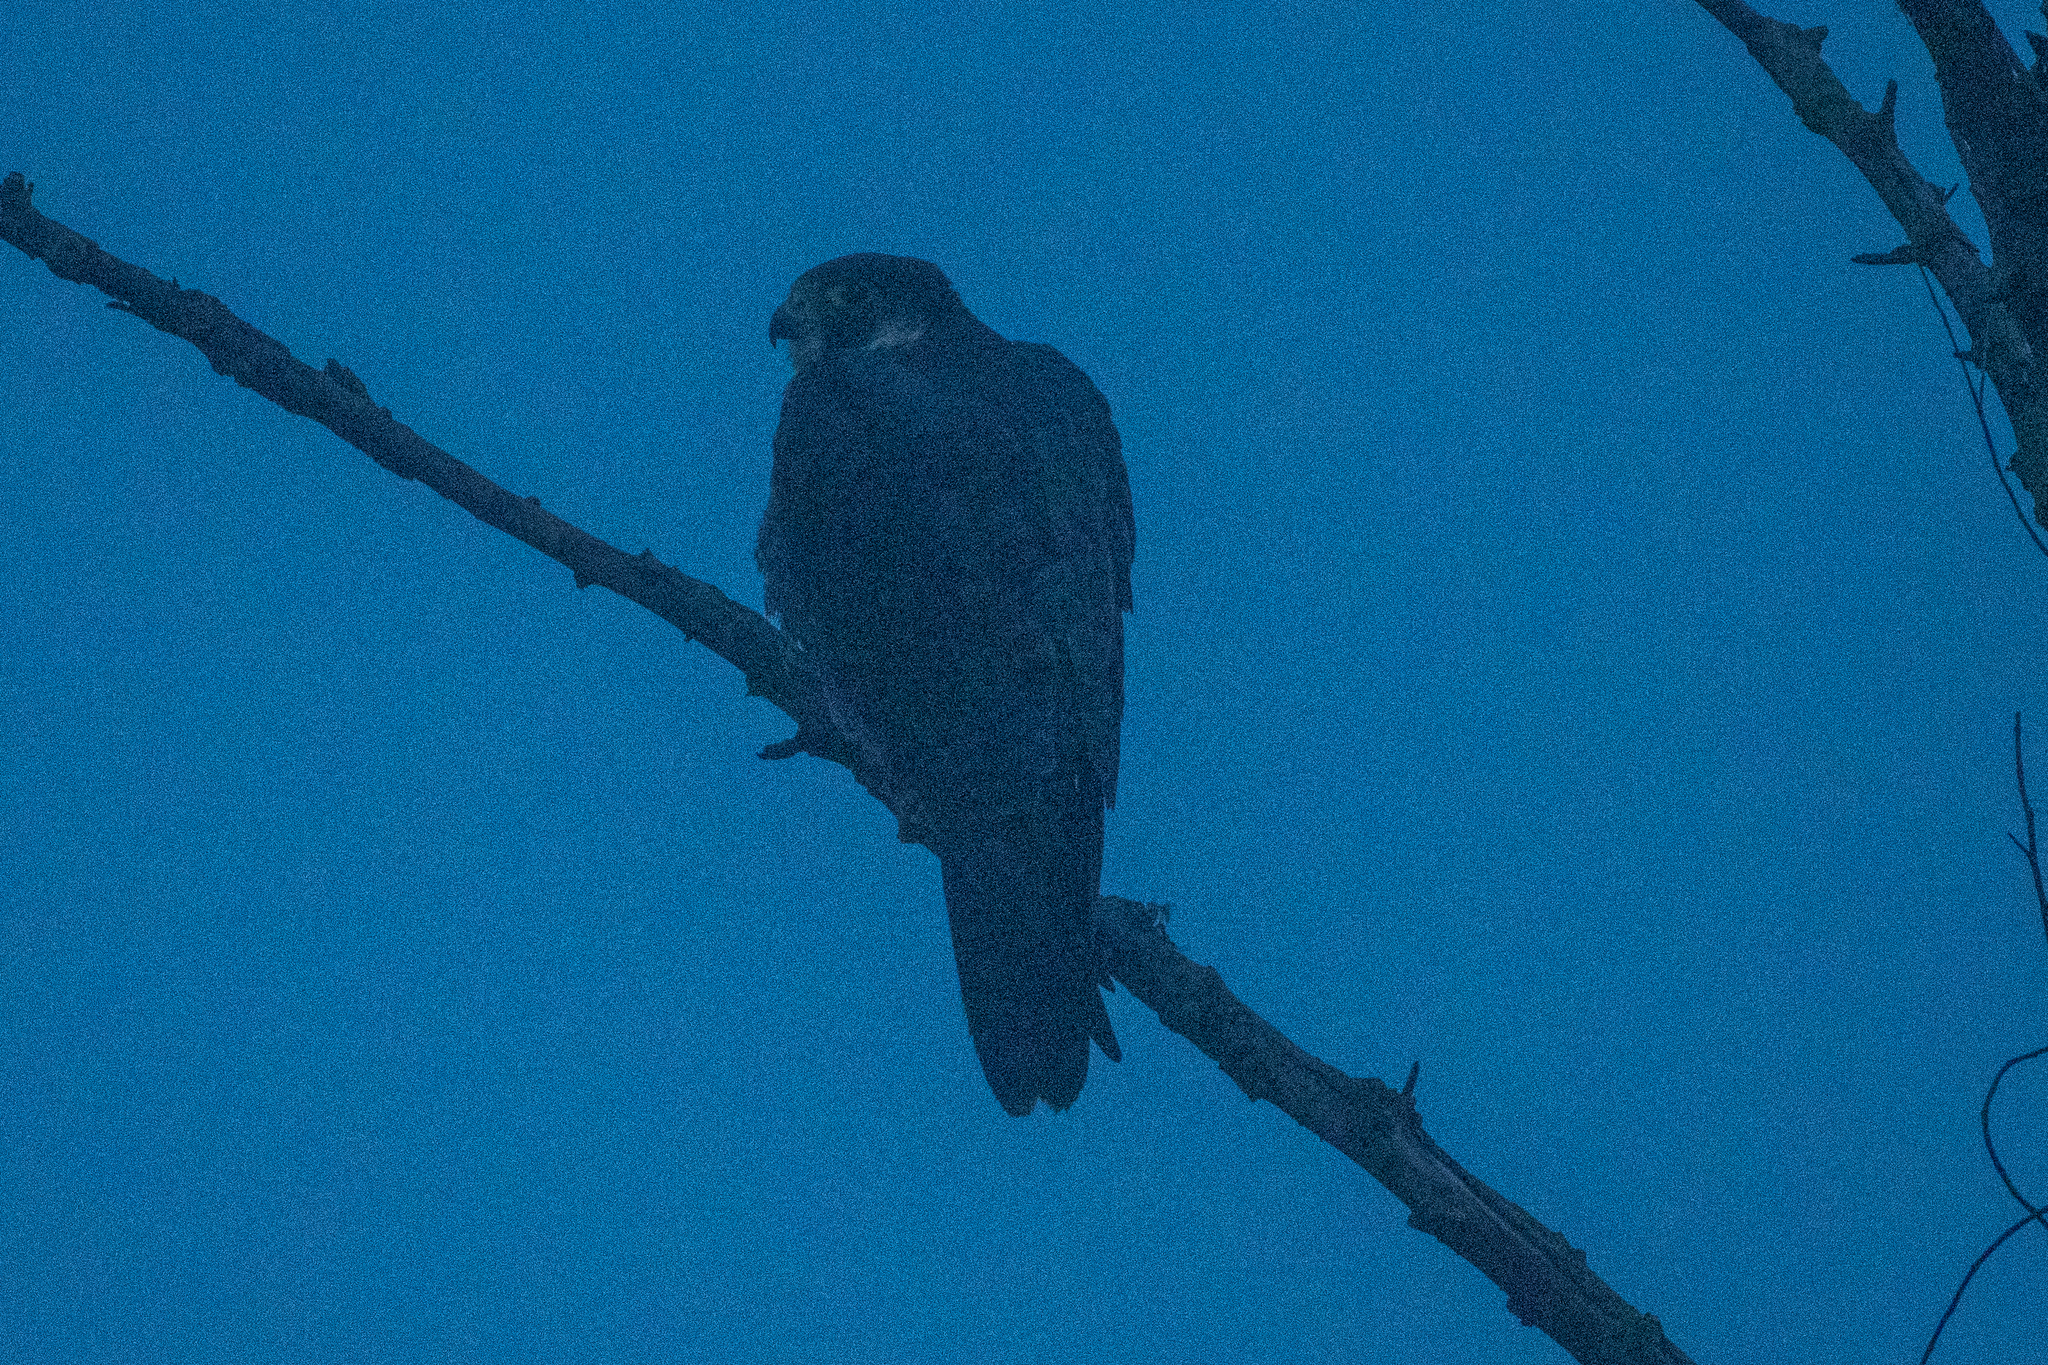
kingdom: Animalia
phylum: Chordata
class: Aves
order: Falconiformes
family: Falconidae
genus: Falco
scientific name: Falco peregrinus
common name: Peregrine falcon
